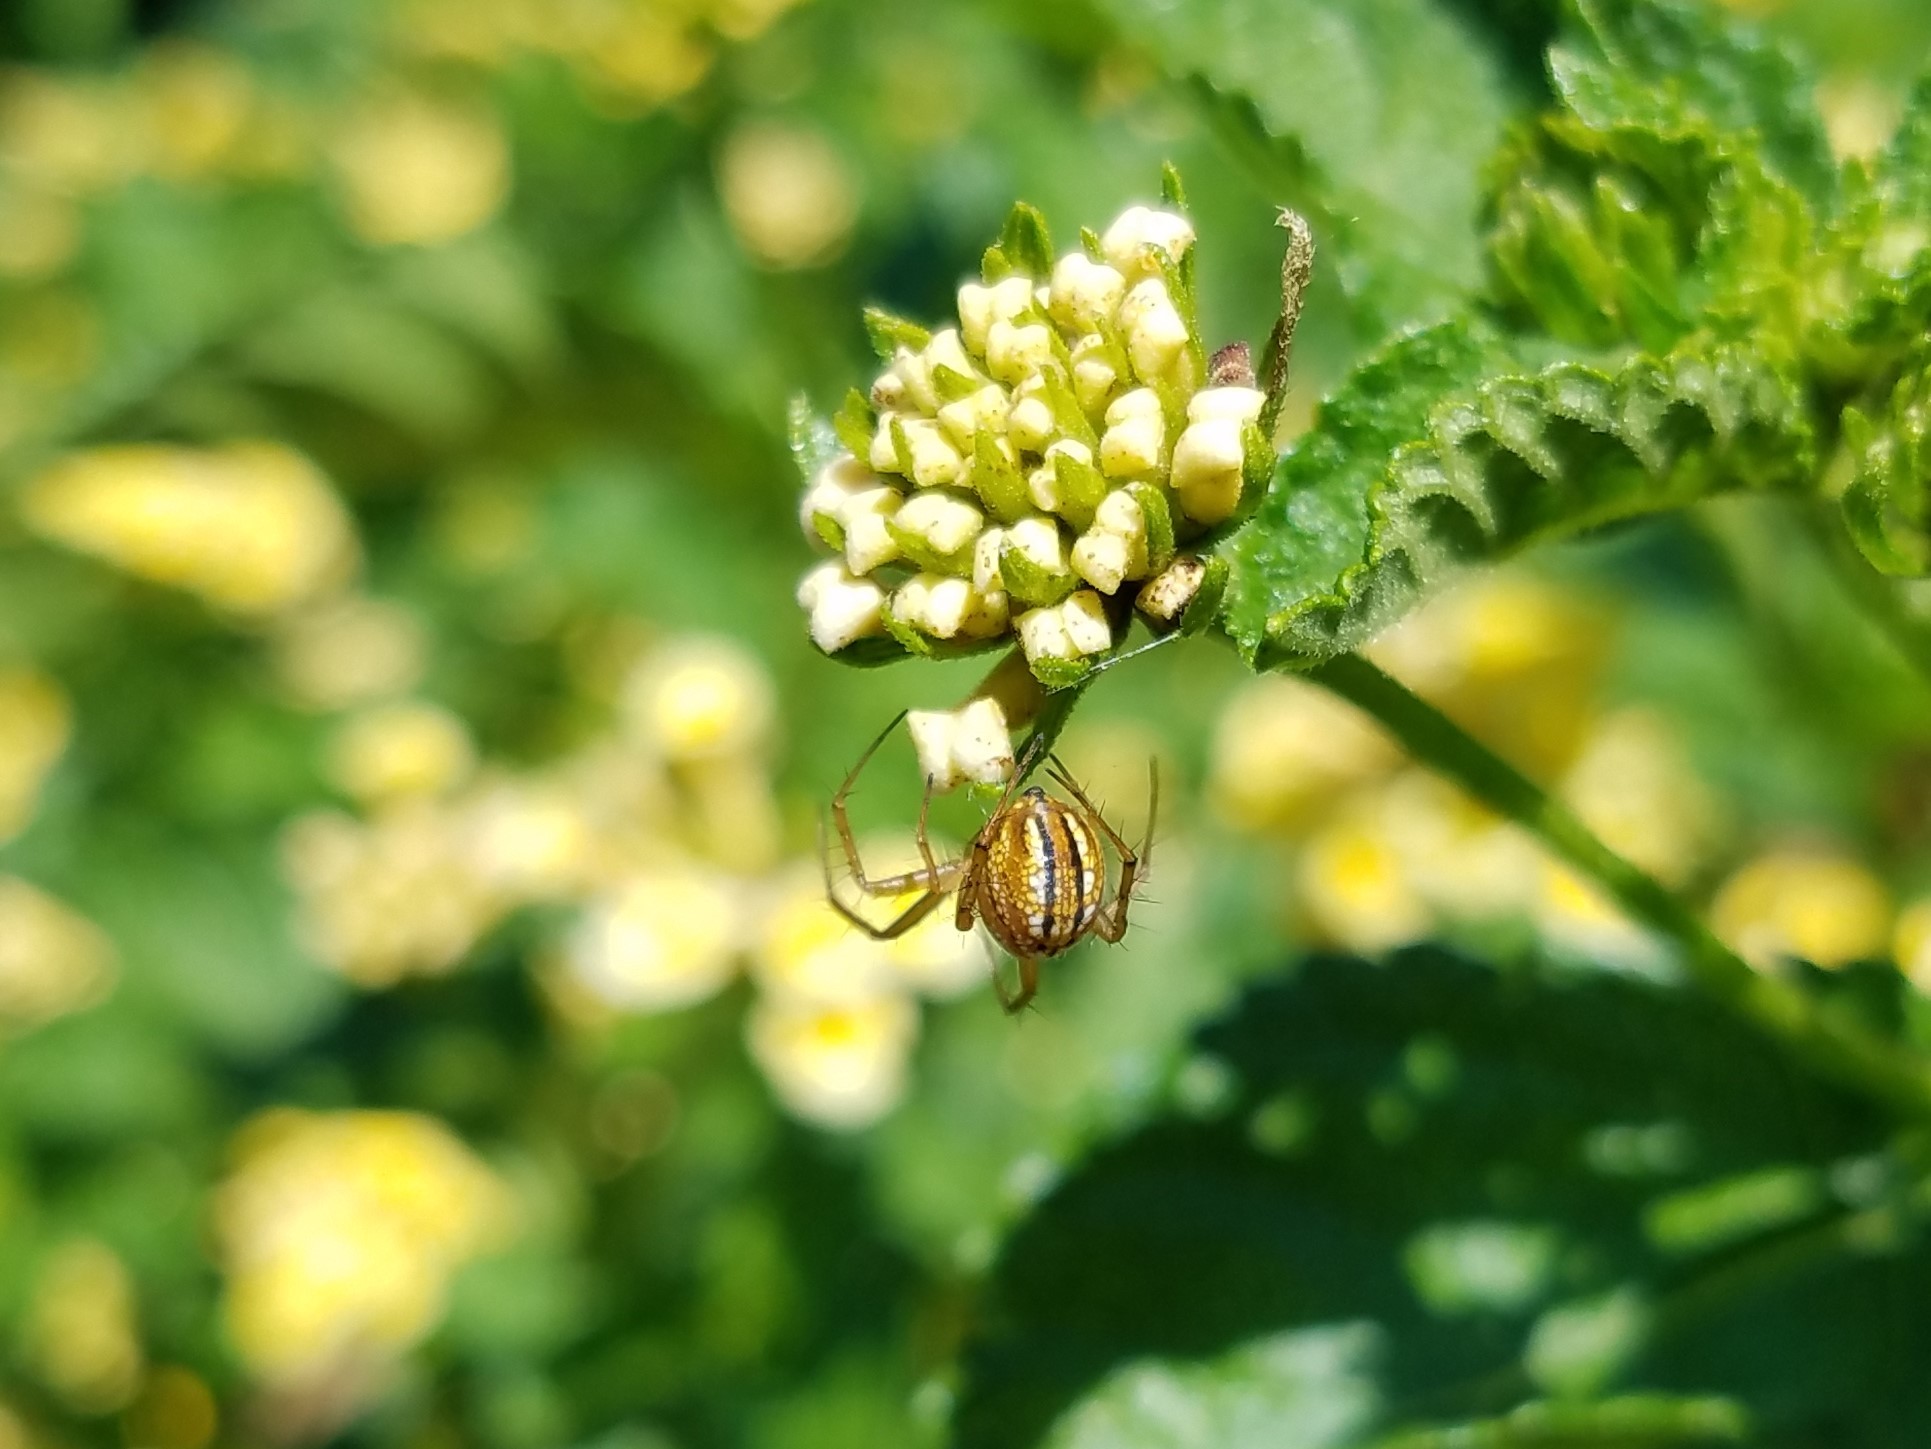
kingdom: Animalia
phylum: Arthropoda
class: Arachnida
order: Araneae
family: Araneidae
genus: Mangora
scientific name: Mangora gibberosa
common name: Lined orbweaver
